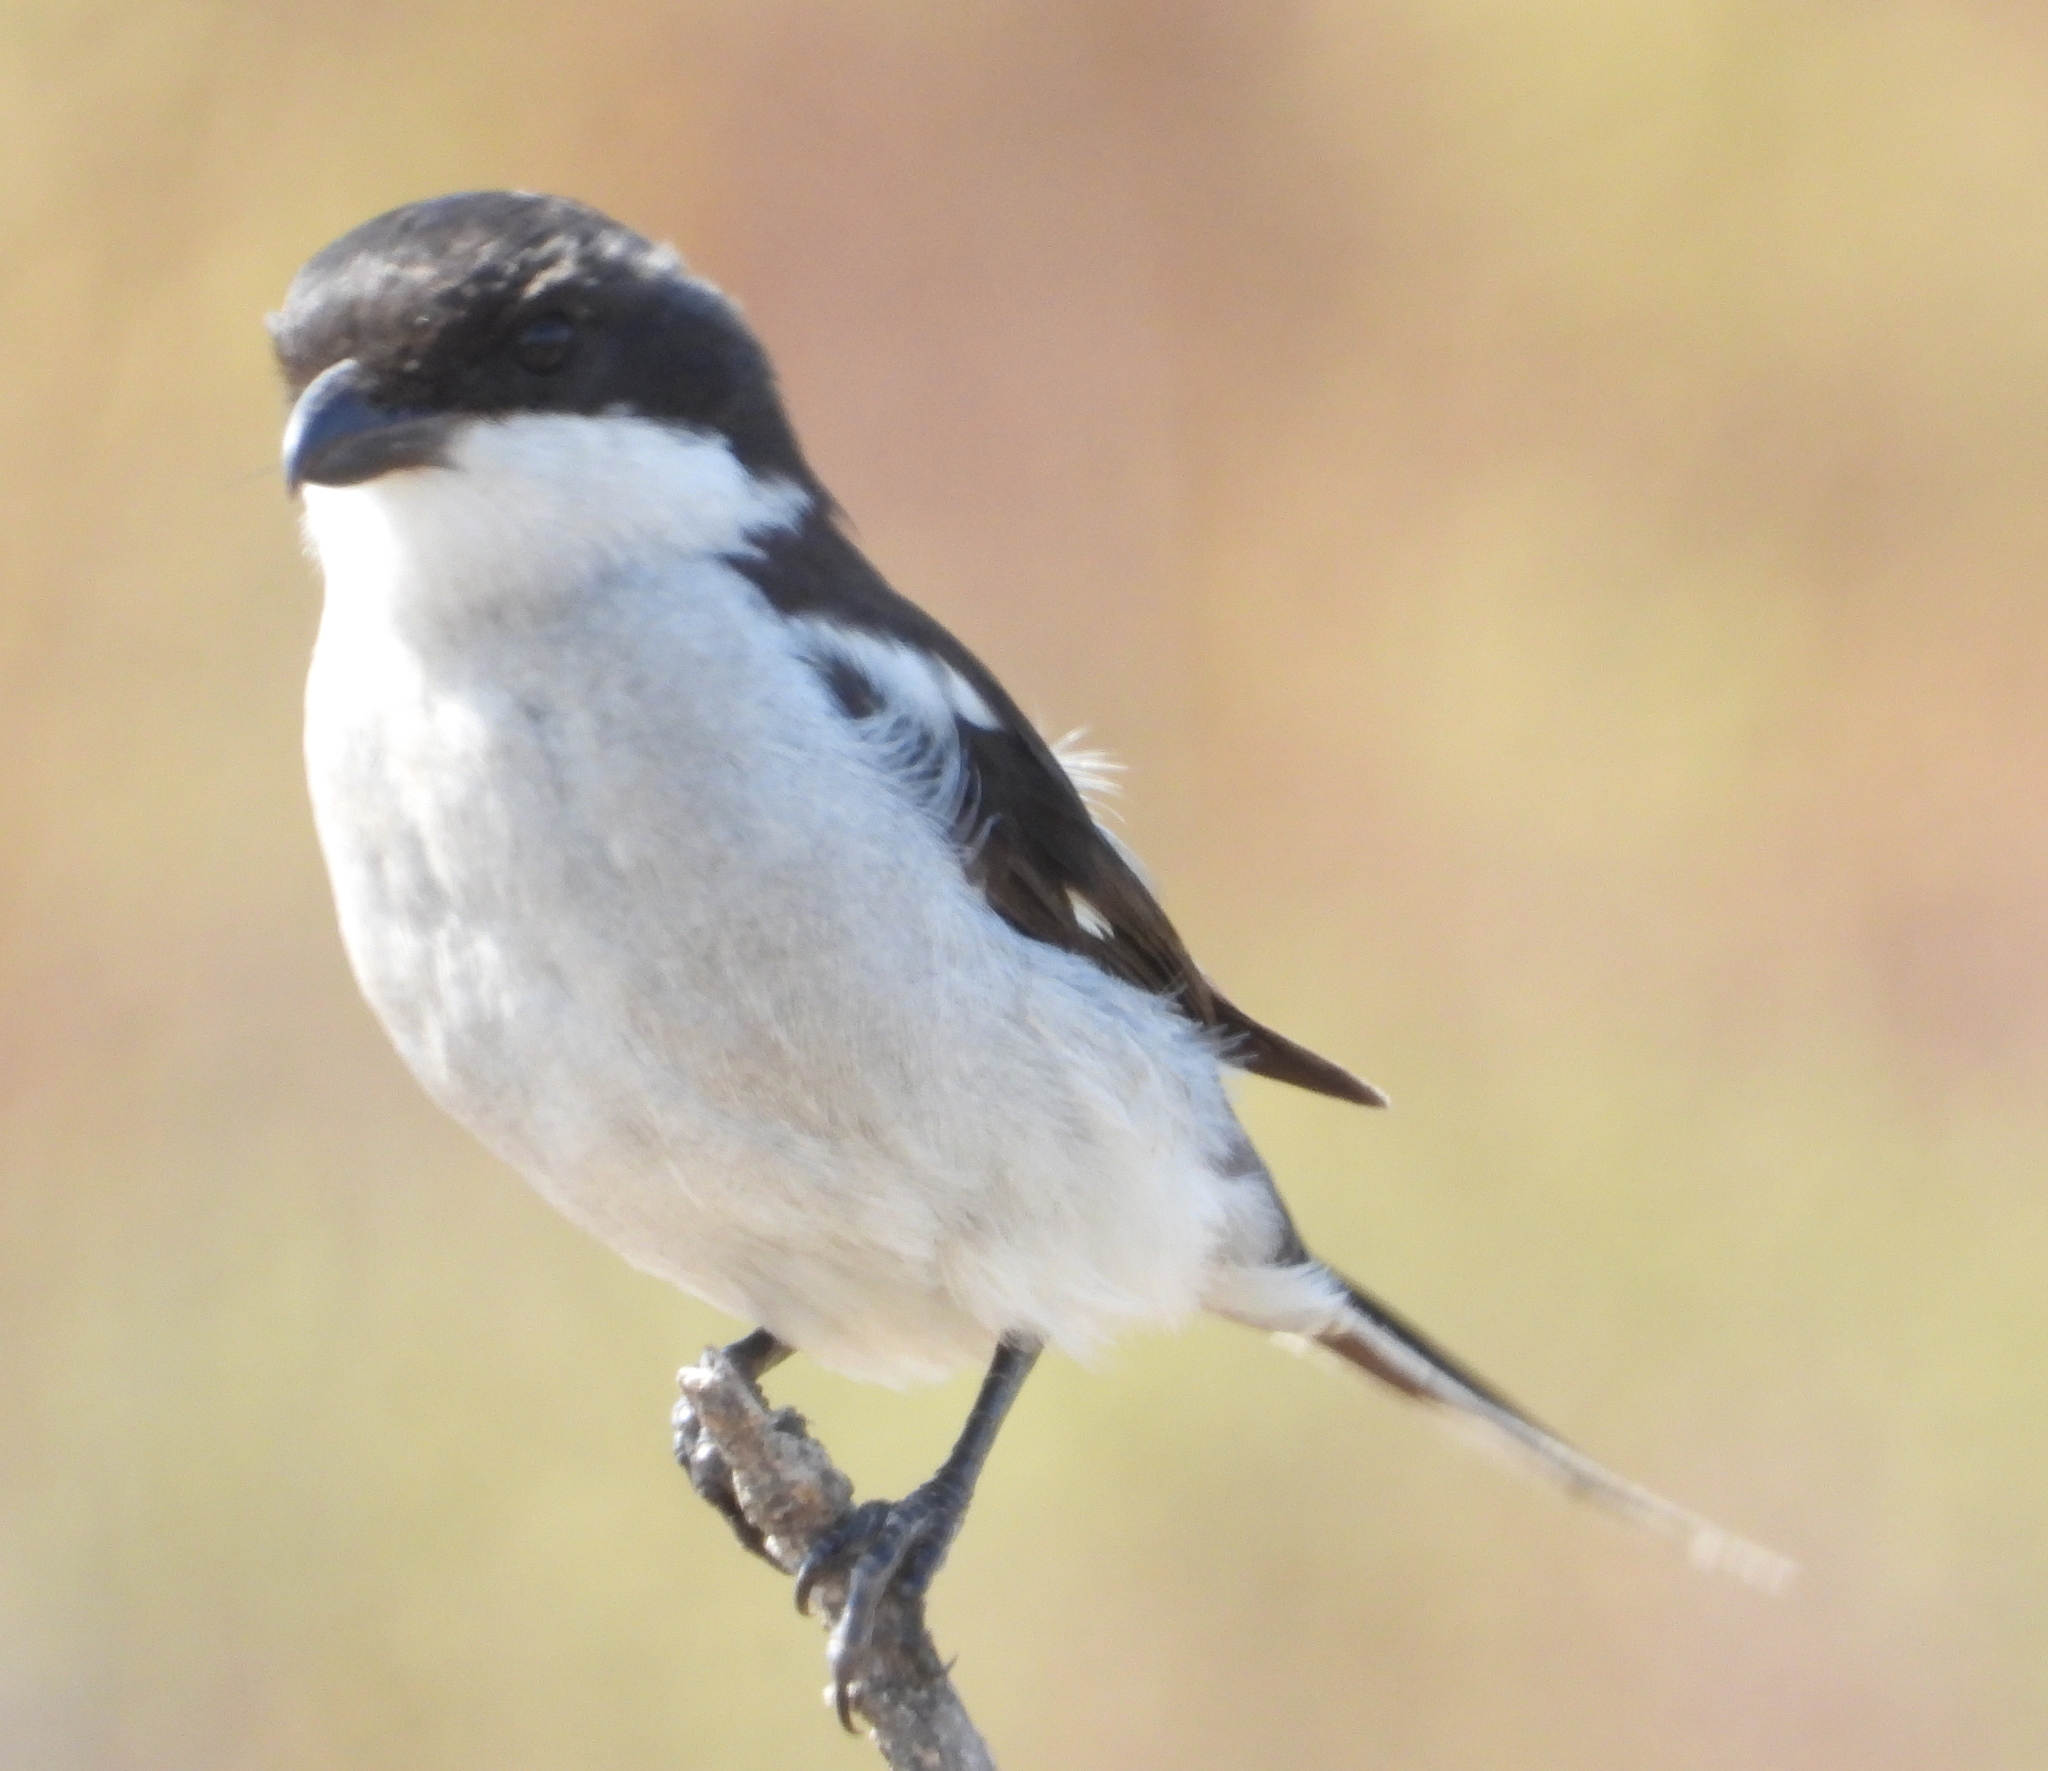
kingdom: Animalia
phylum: Chordata
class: Aves
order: Passeriformes
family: Laniidae
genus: Lanius
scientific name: Lanius collaris
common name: Southern fiscal
